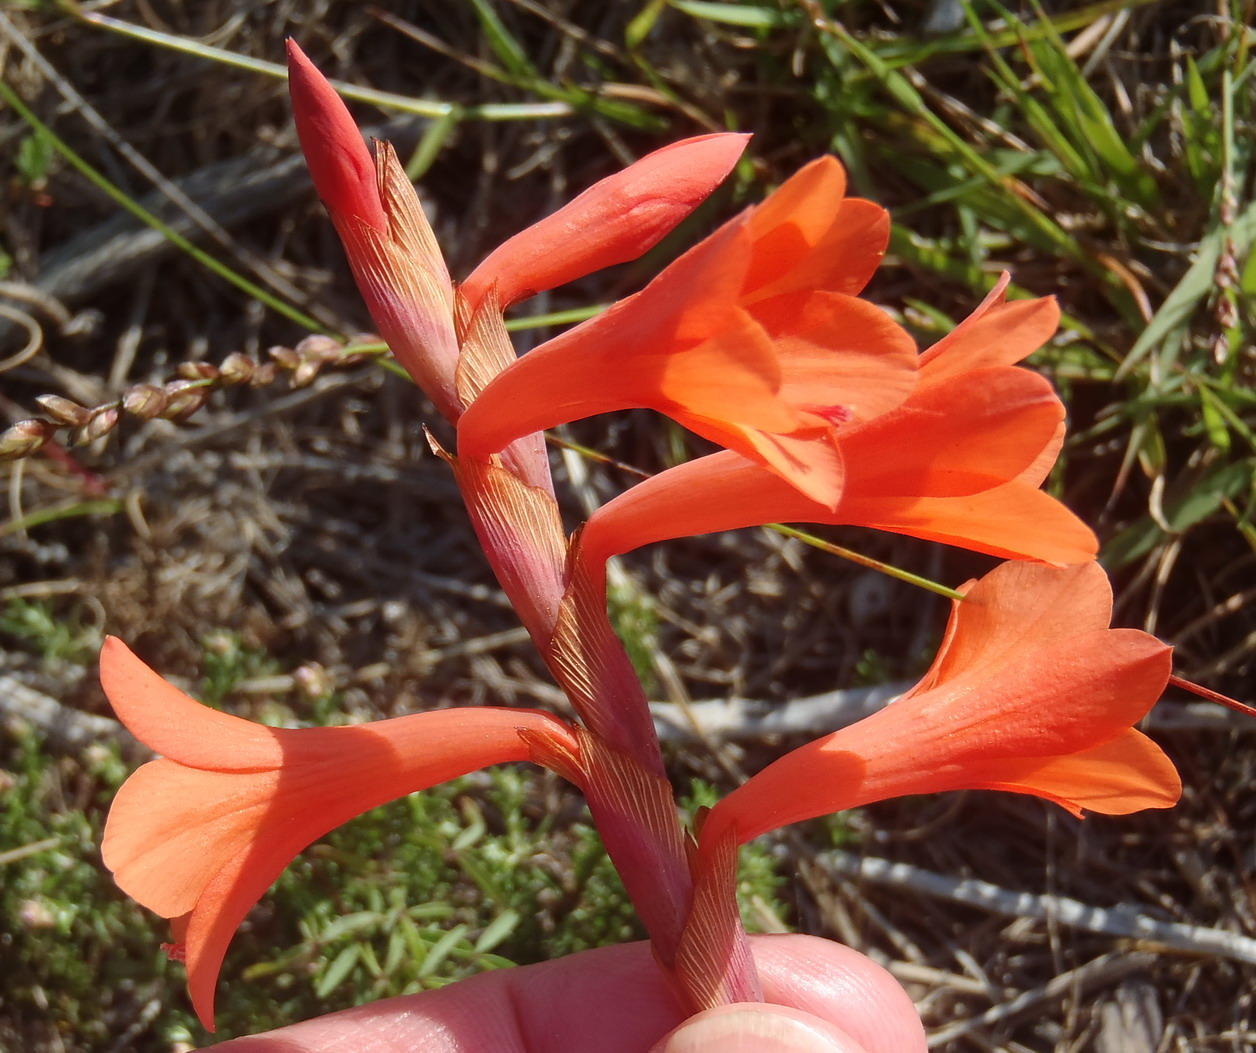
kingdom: Plantae
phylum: Tracheophyta
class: Liliopsida
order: Asparagales
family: Iridaceae
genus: Watsonia
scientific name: Watsonia laccata
